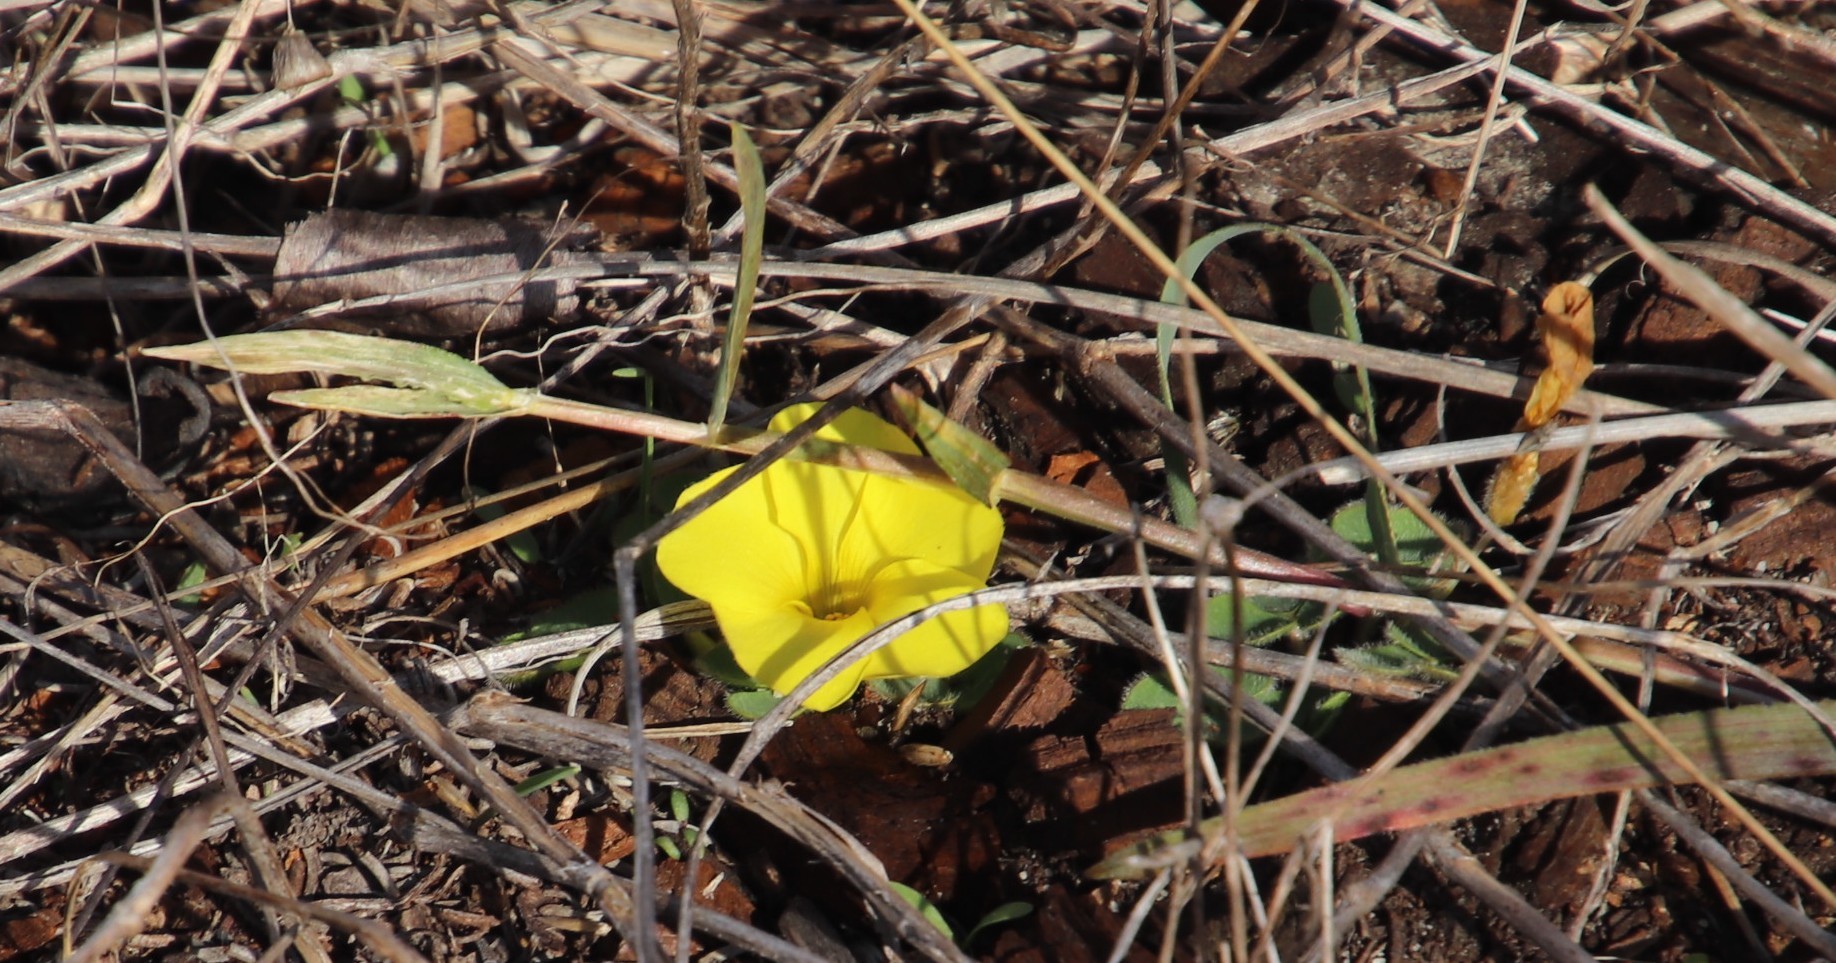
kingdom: Plantae
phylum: Tracheophyta
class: Magnoliopsida
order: Oxalidales
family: Oxalidaceae
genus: Oxalis
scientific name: Oxalis luteola
